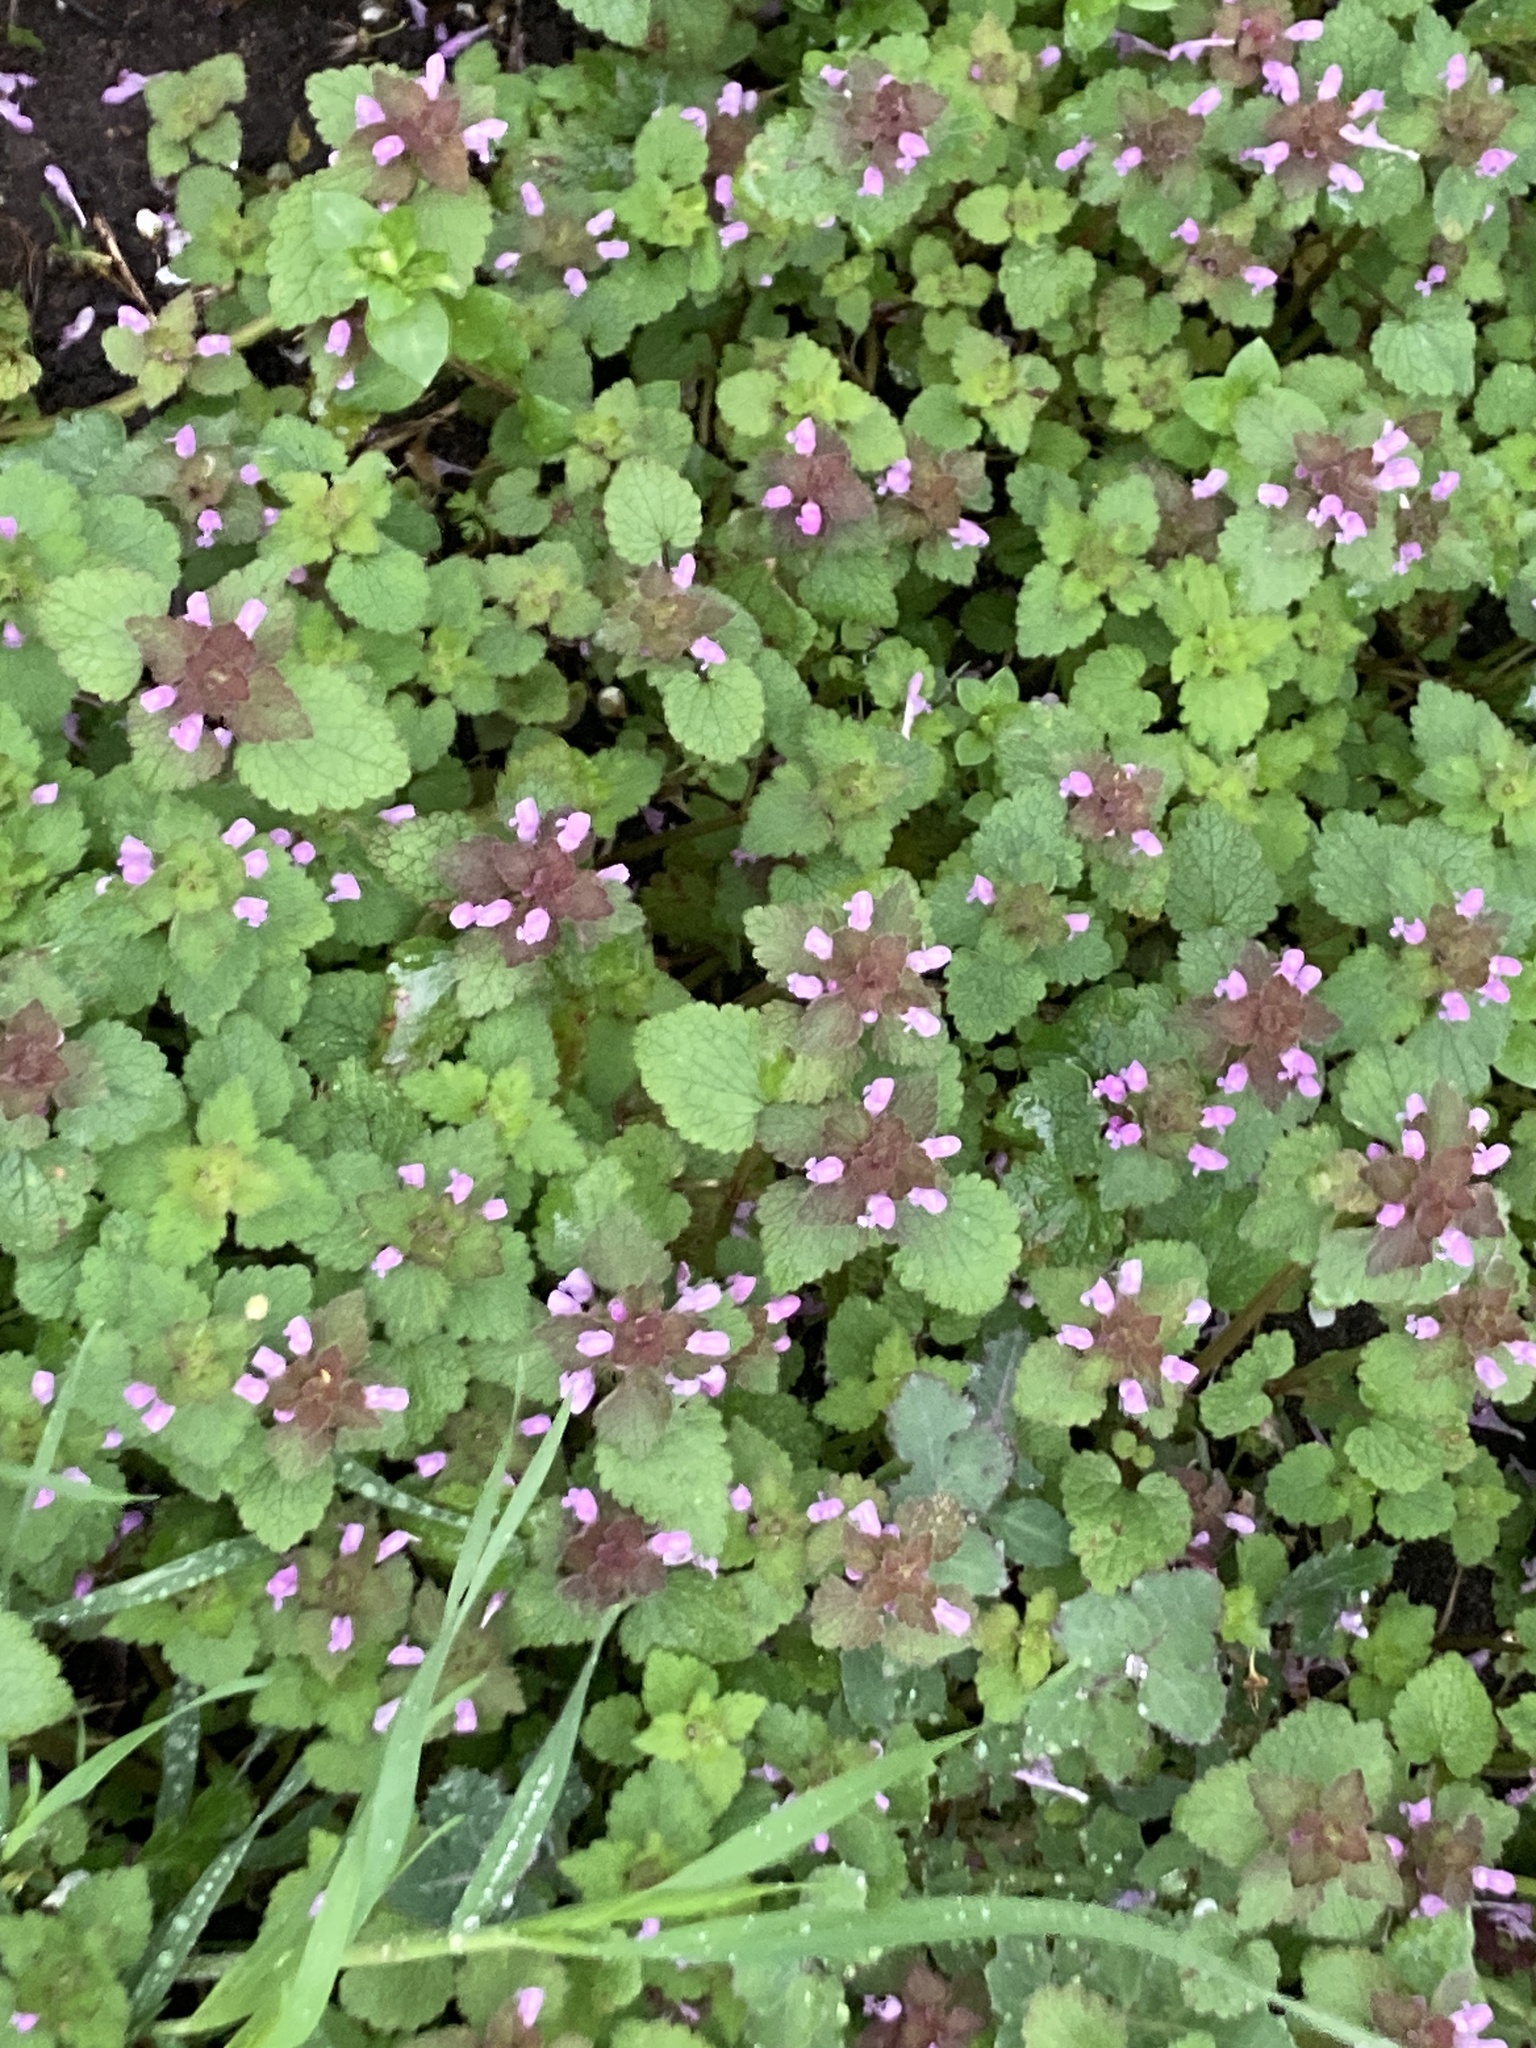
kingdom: Plantae
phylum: Tracheophyta
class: Magnoliopsida
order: Lamiales
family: Lamiaceae
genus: Lamium
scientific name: Lamium purpureum
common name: Red dead-nettle
